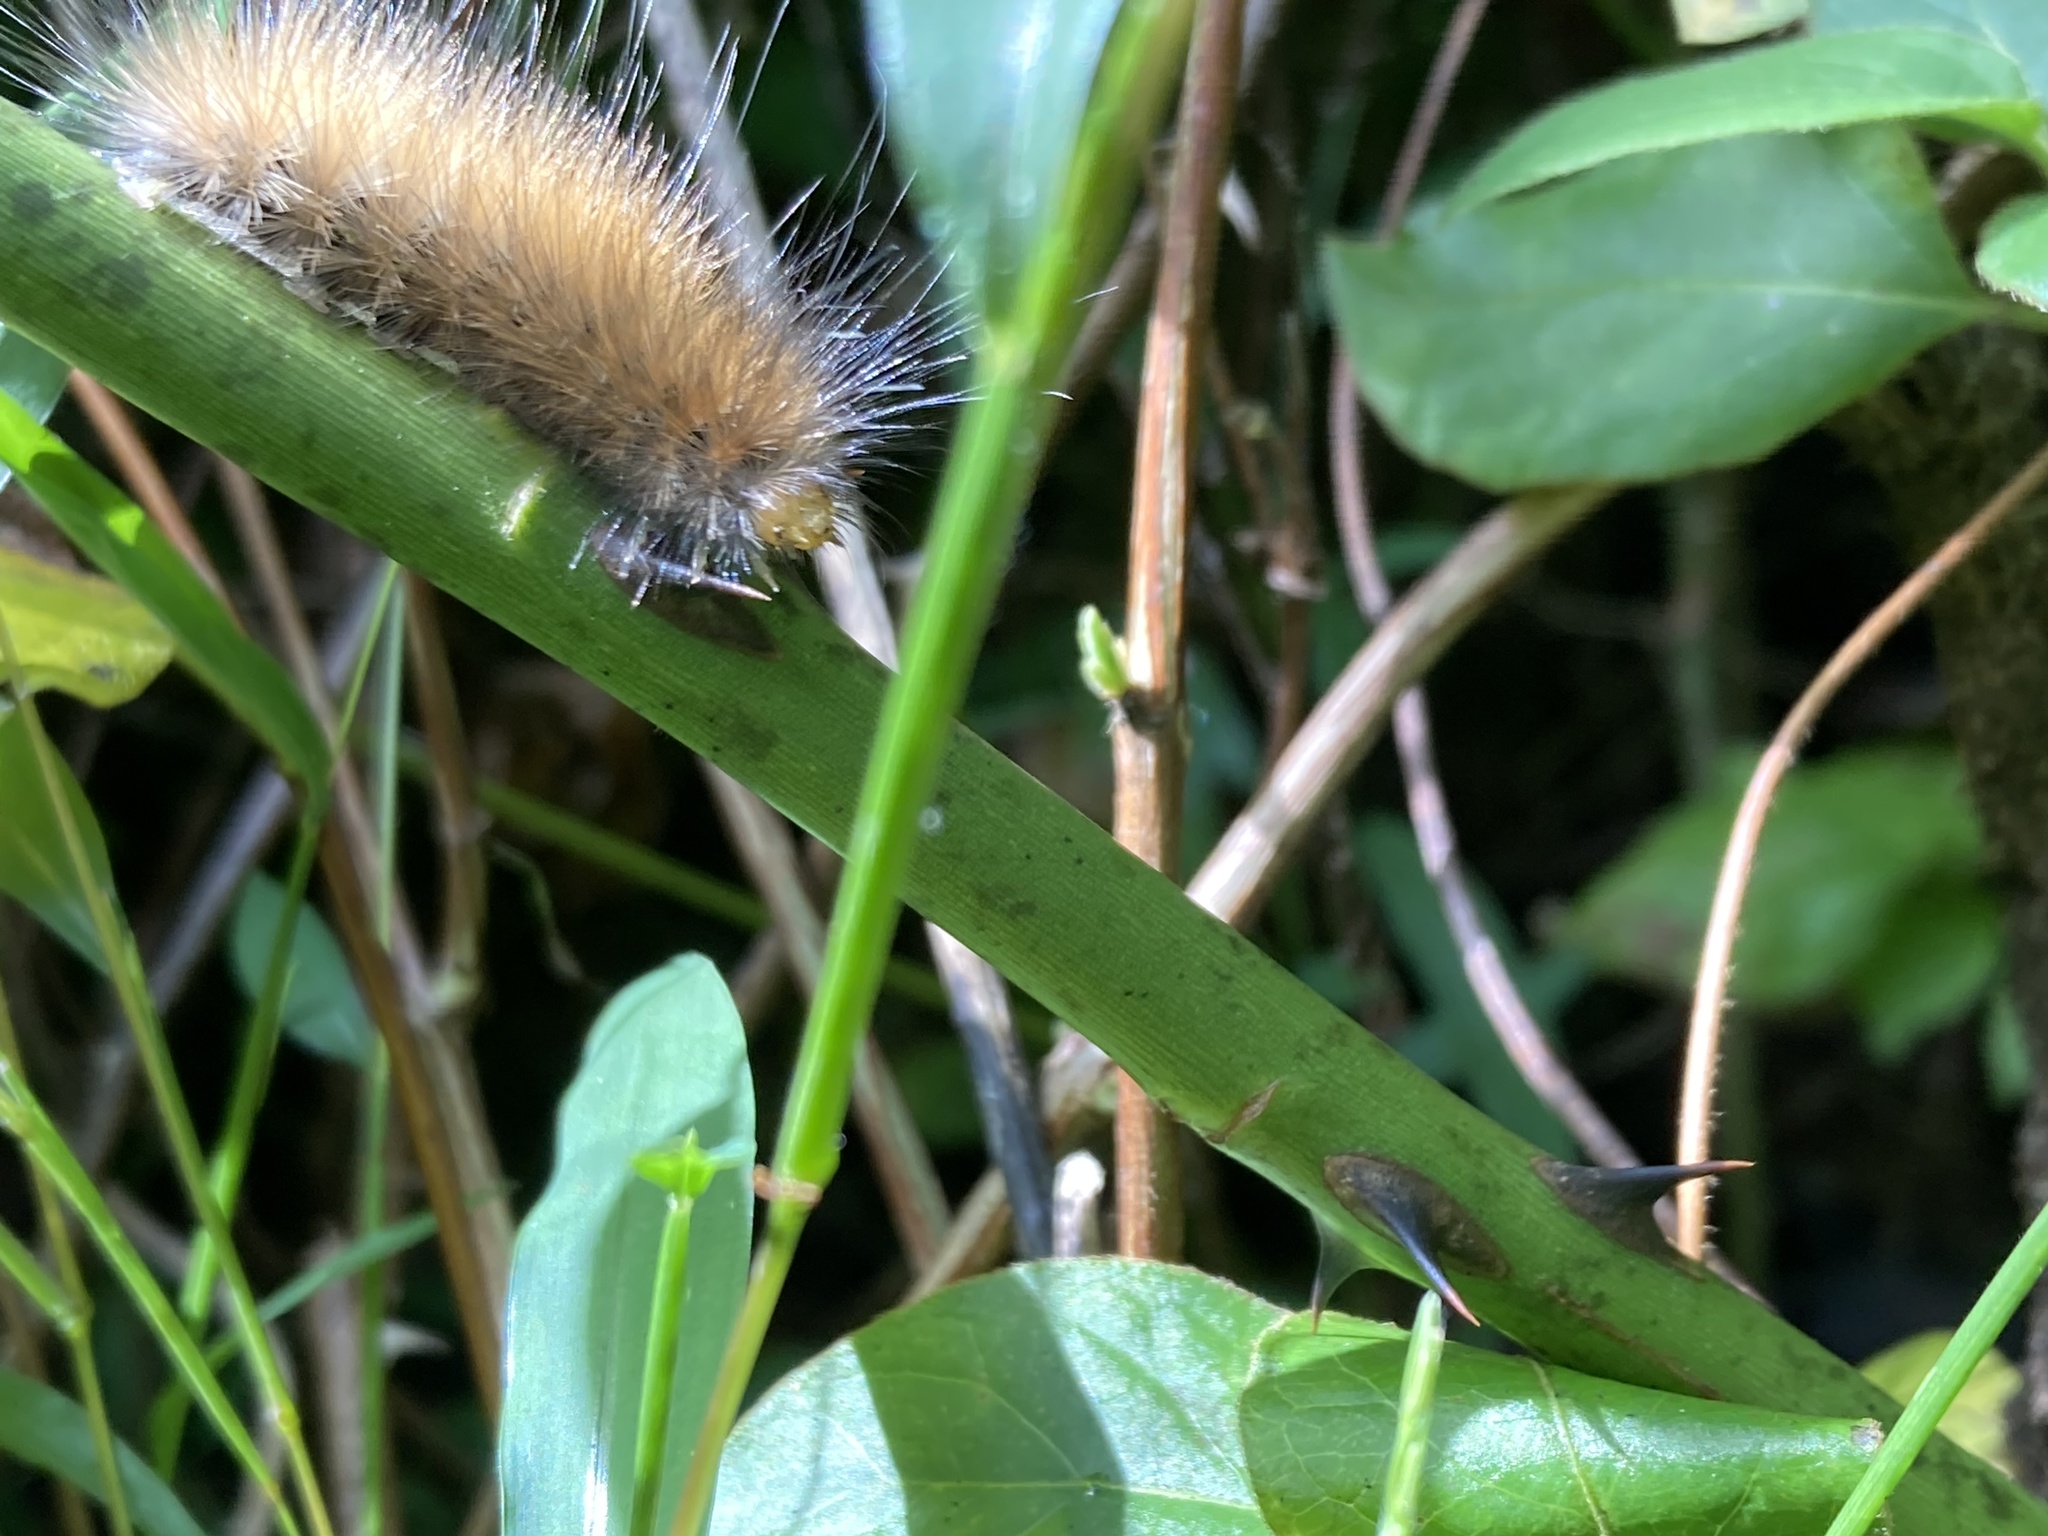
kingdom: Animalia
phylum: Arthropoda
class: Insecta
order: Lepidoptera
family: Erebidae
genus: Spilosoma
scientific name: Spilosoma virginica
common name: Virginia tiger moth
